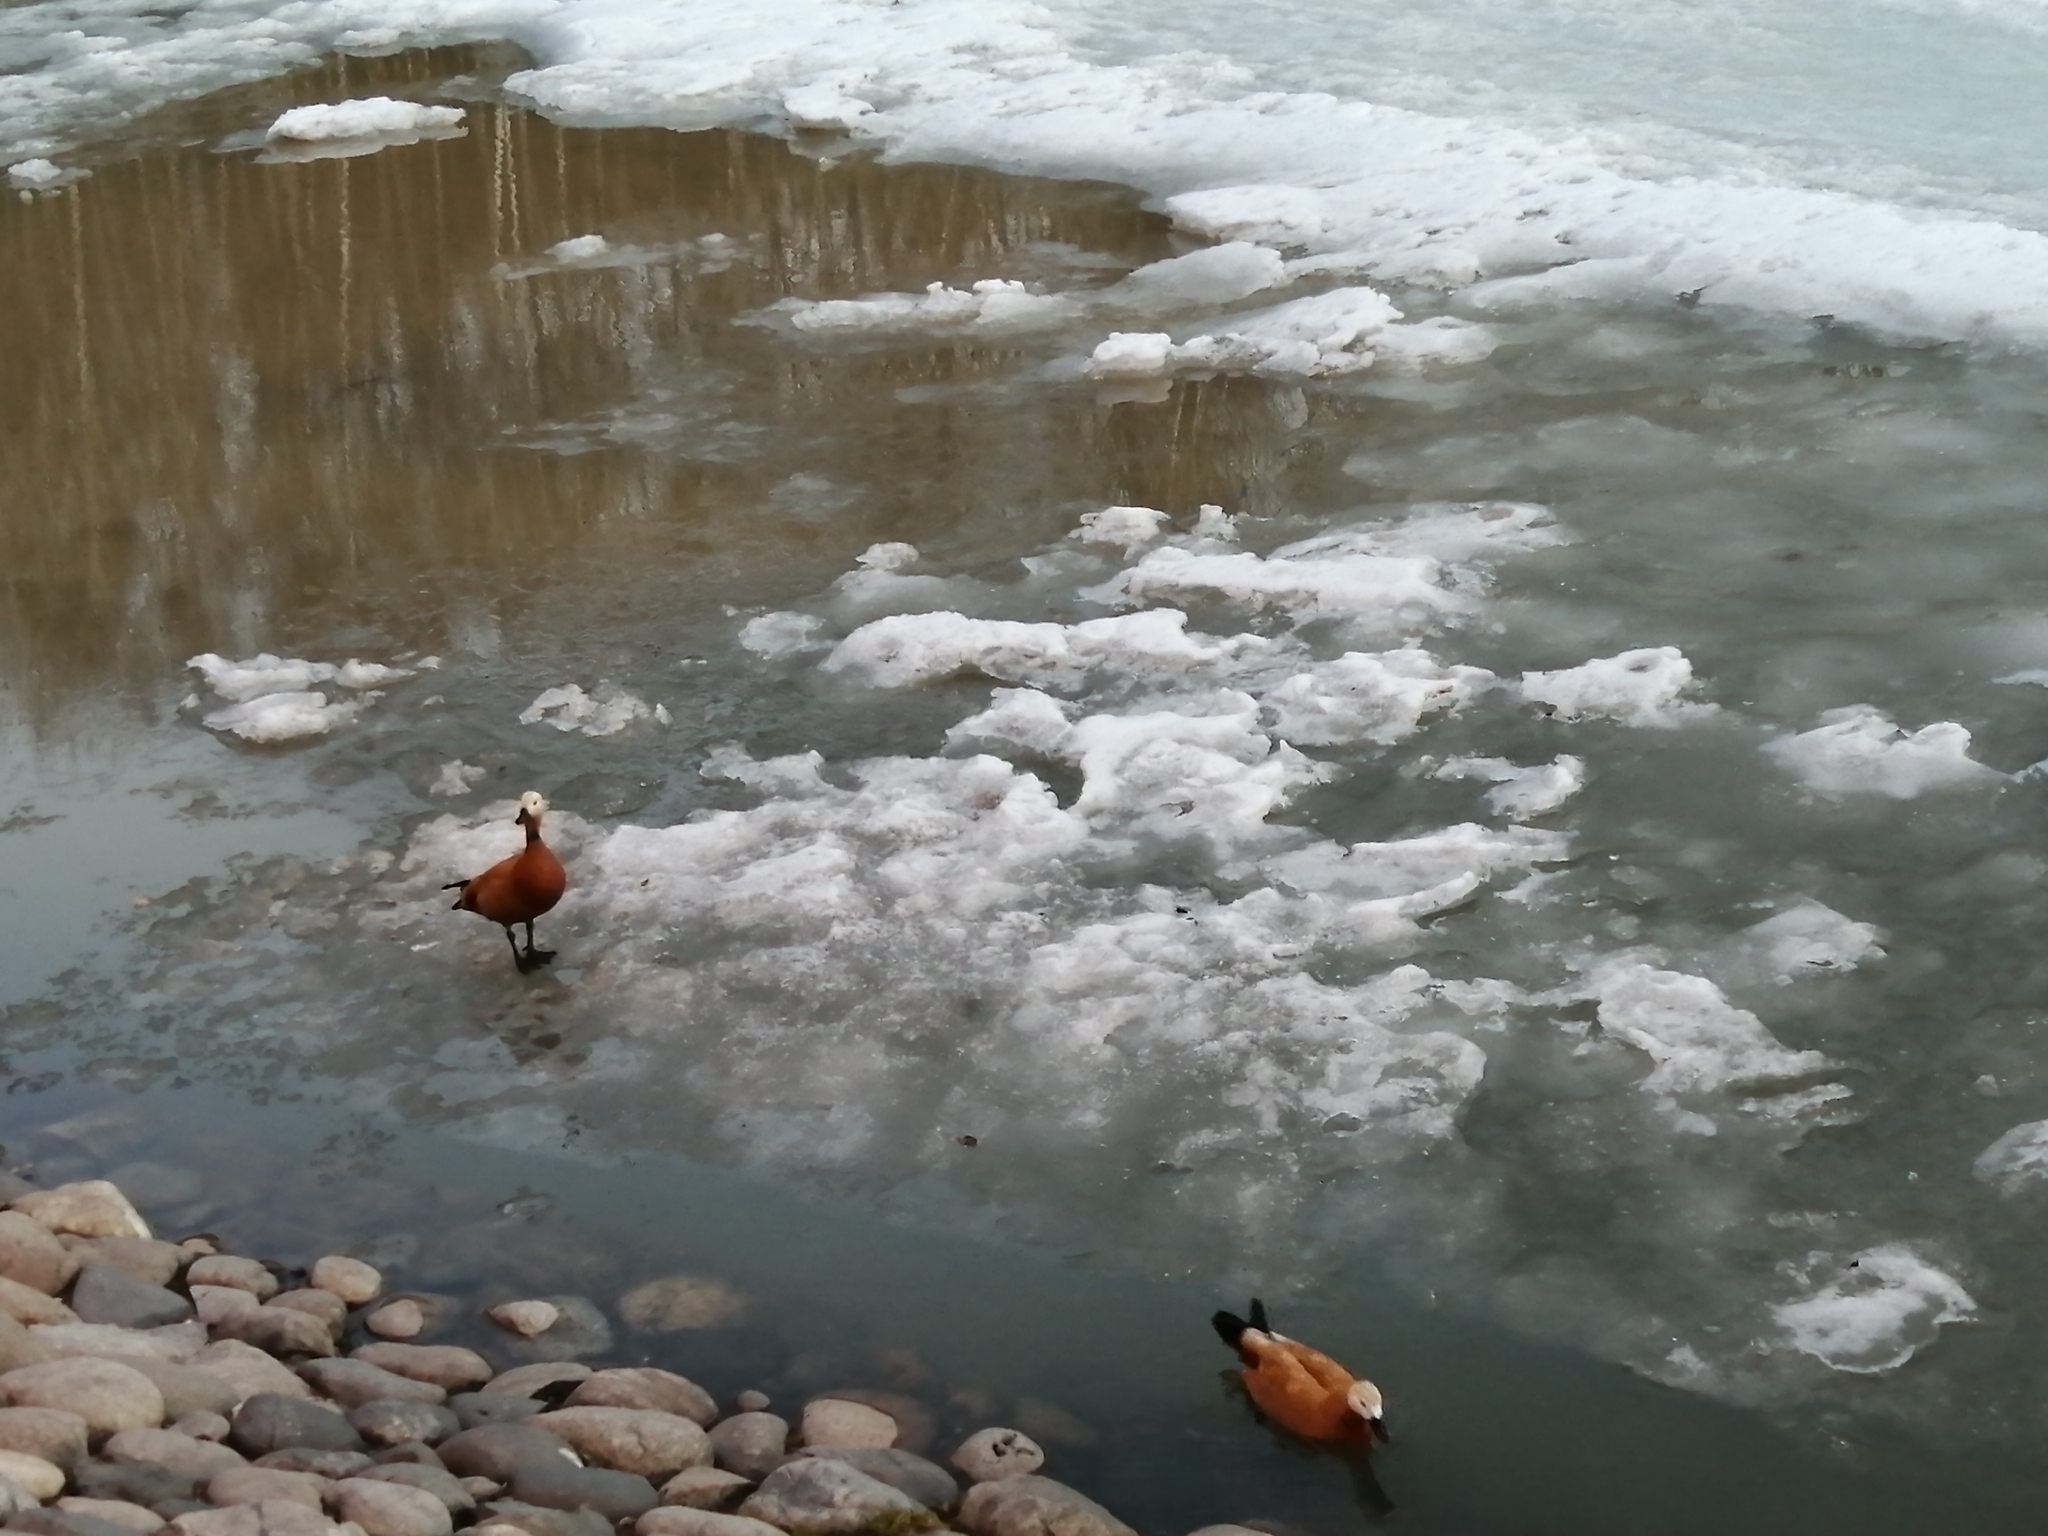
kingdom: Animalia
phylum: Chordata
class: Aves
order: Anseriformes
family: Anatidae
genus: Tadorna
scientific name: Tadorna ferruginea
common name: Ruddy shelduck
